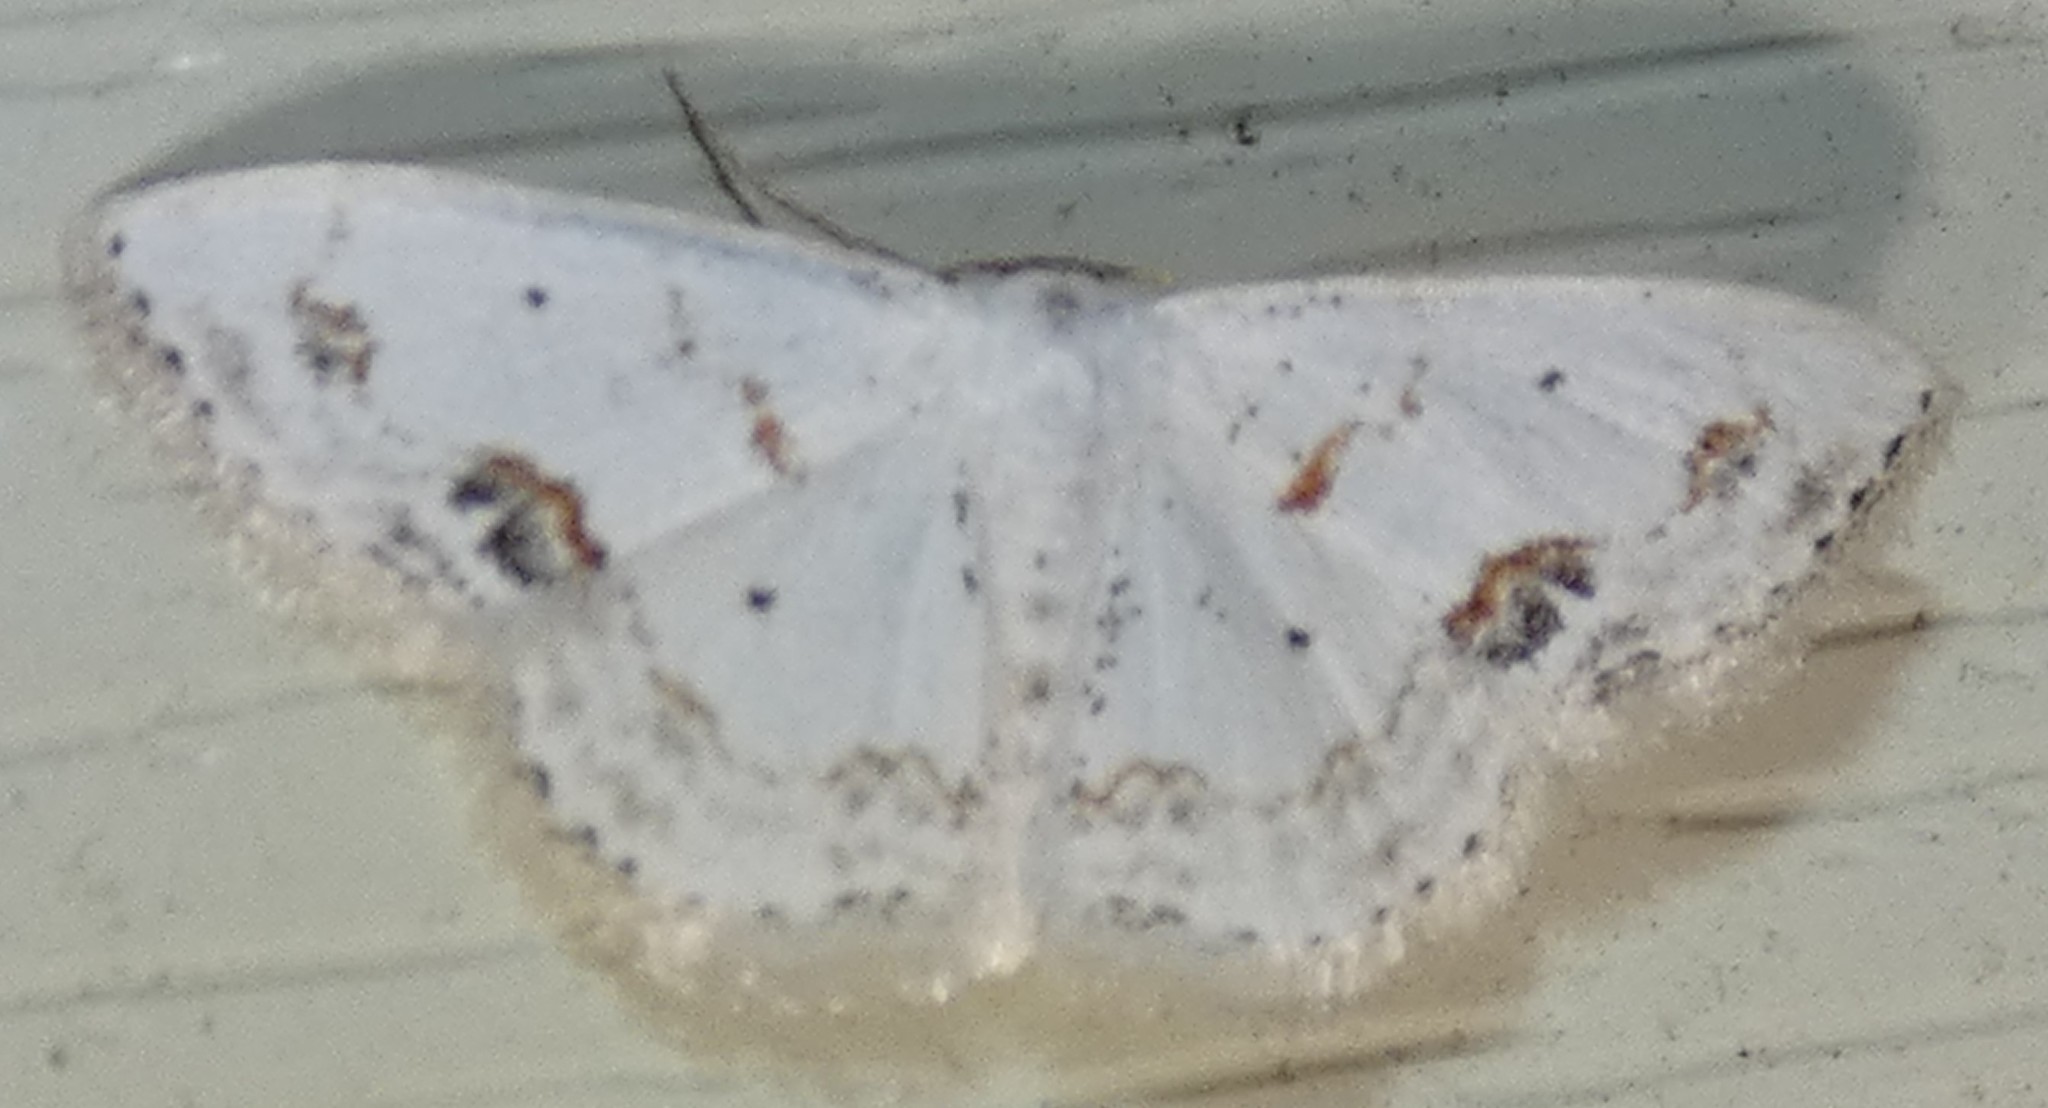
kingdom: Animalia
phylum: Arthropoda
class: Insecta
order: Lepidoptera
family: Geometridae
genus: Scopula
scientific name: Scopula lautaria
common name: Small frosted wave moth
